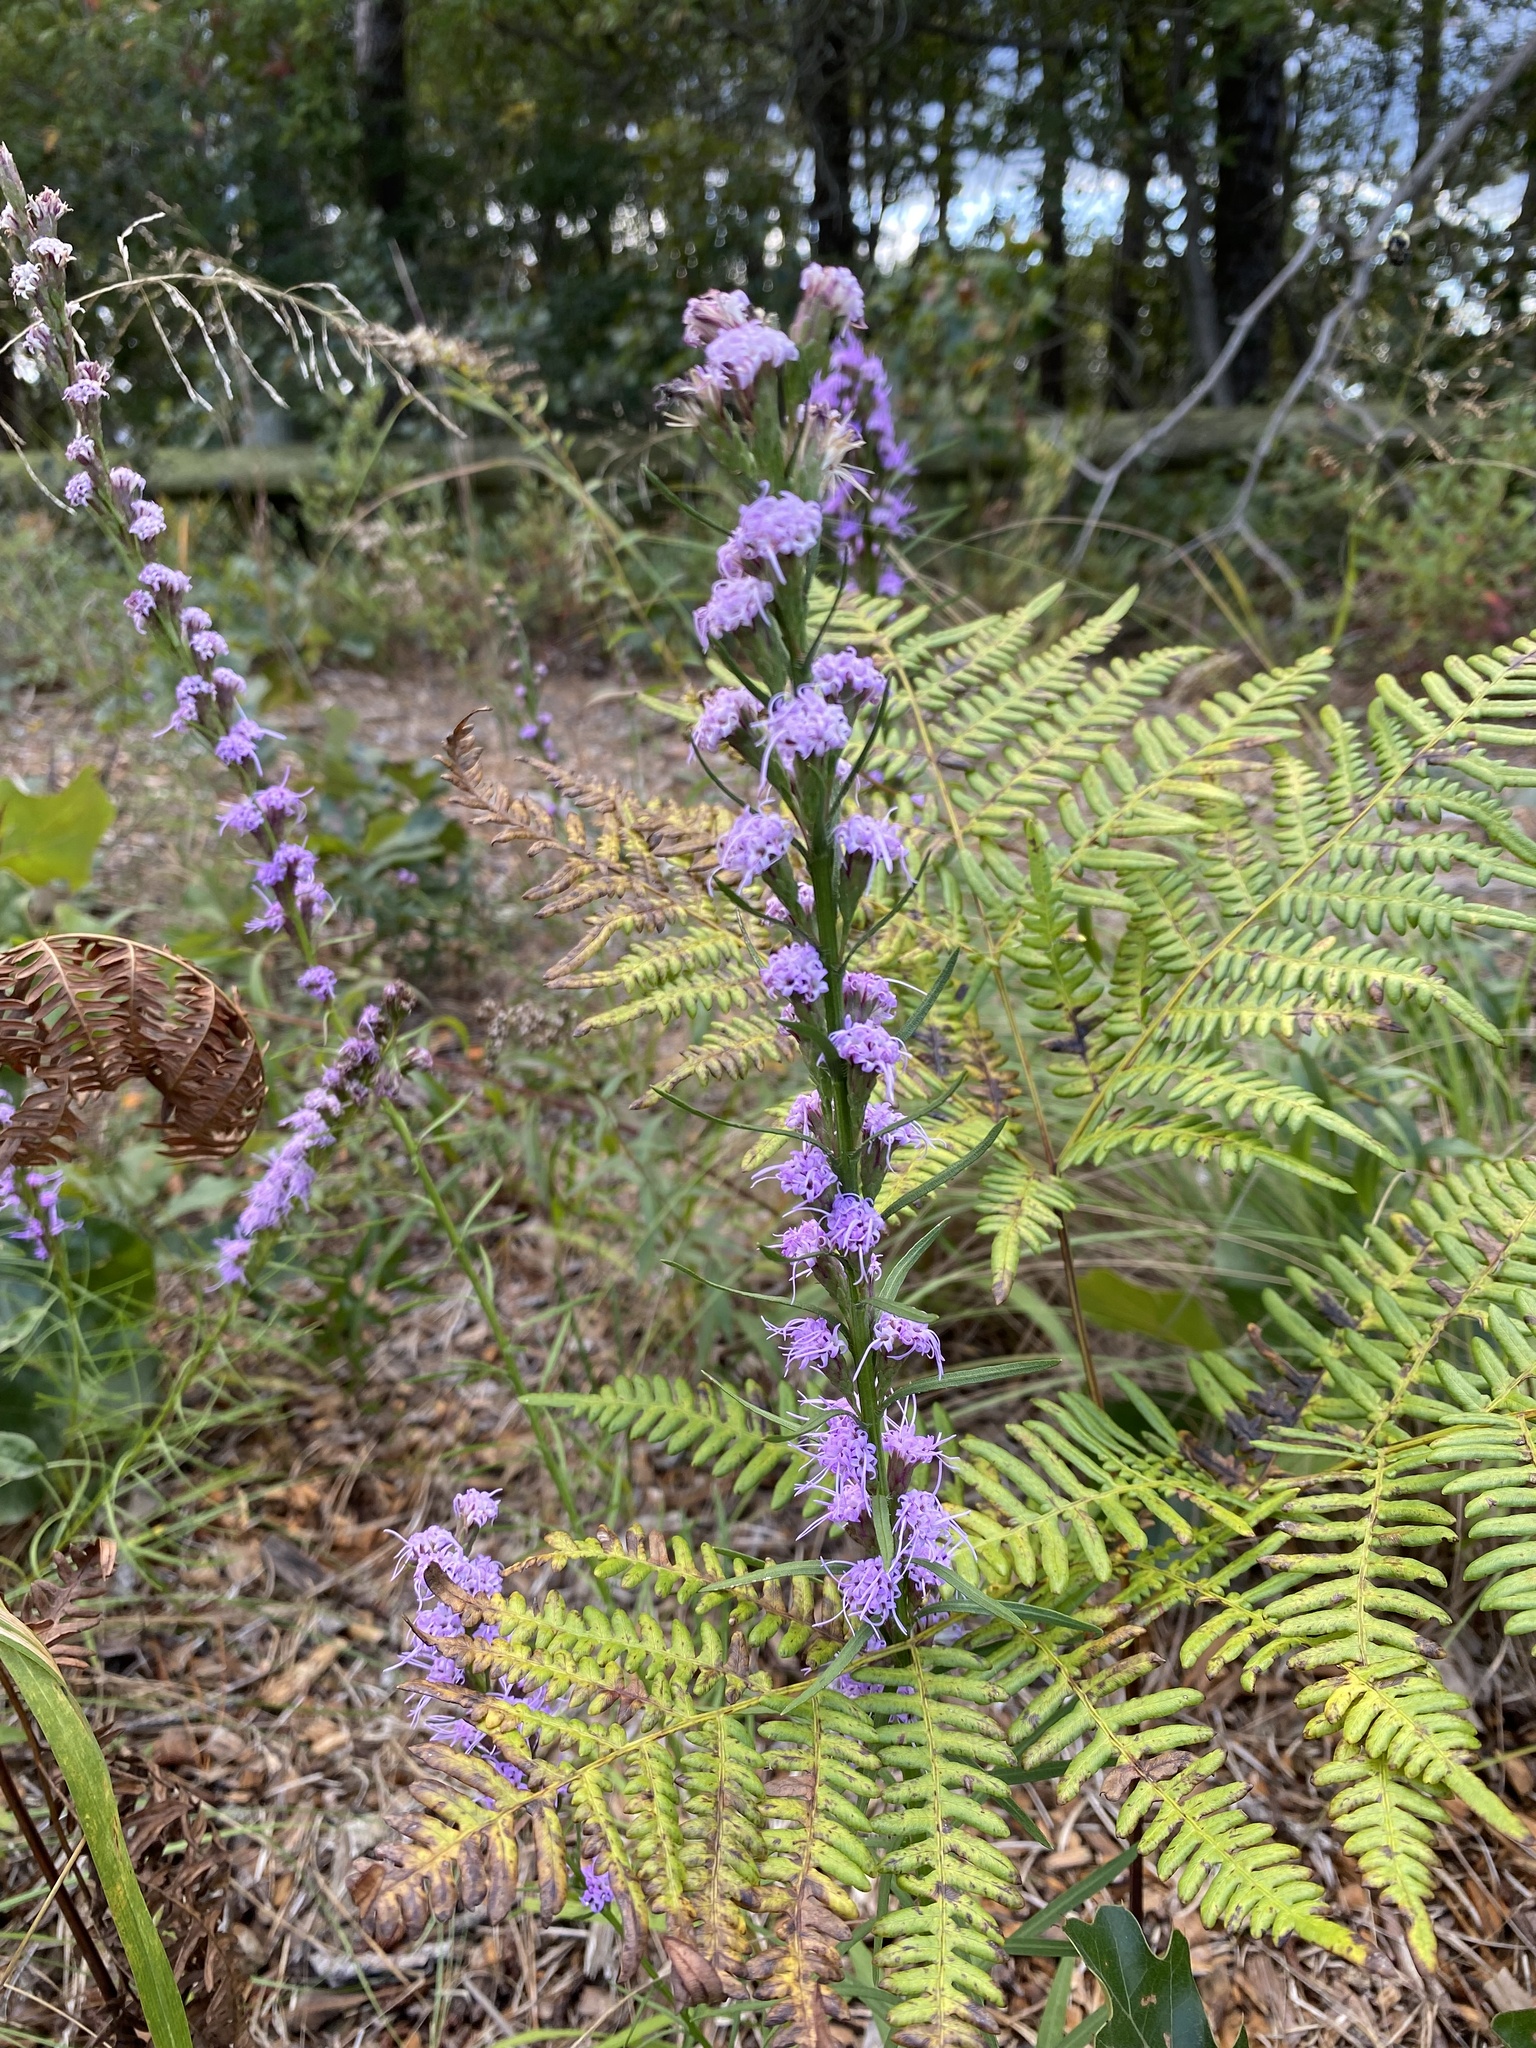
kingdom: Plantae
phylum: Tracheophyta
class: Magnoliopsida
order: Asterales
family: Asteraceae
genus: Liatris
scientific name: Liatris pilosa
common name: Grass-leaf gayfeather
